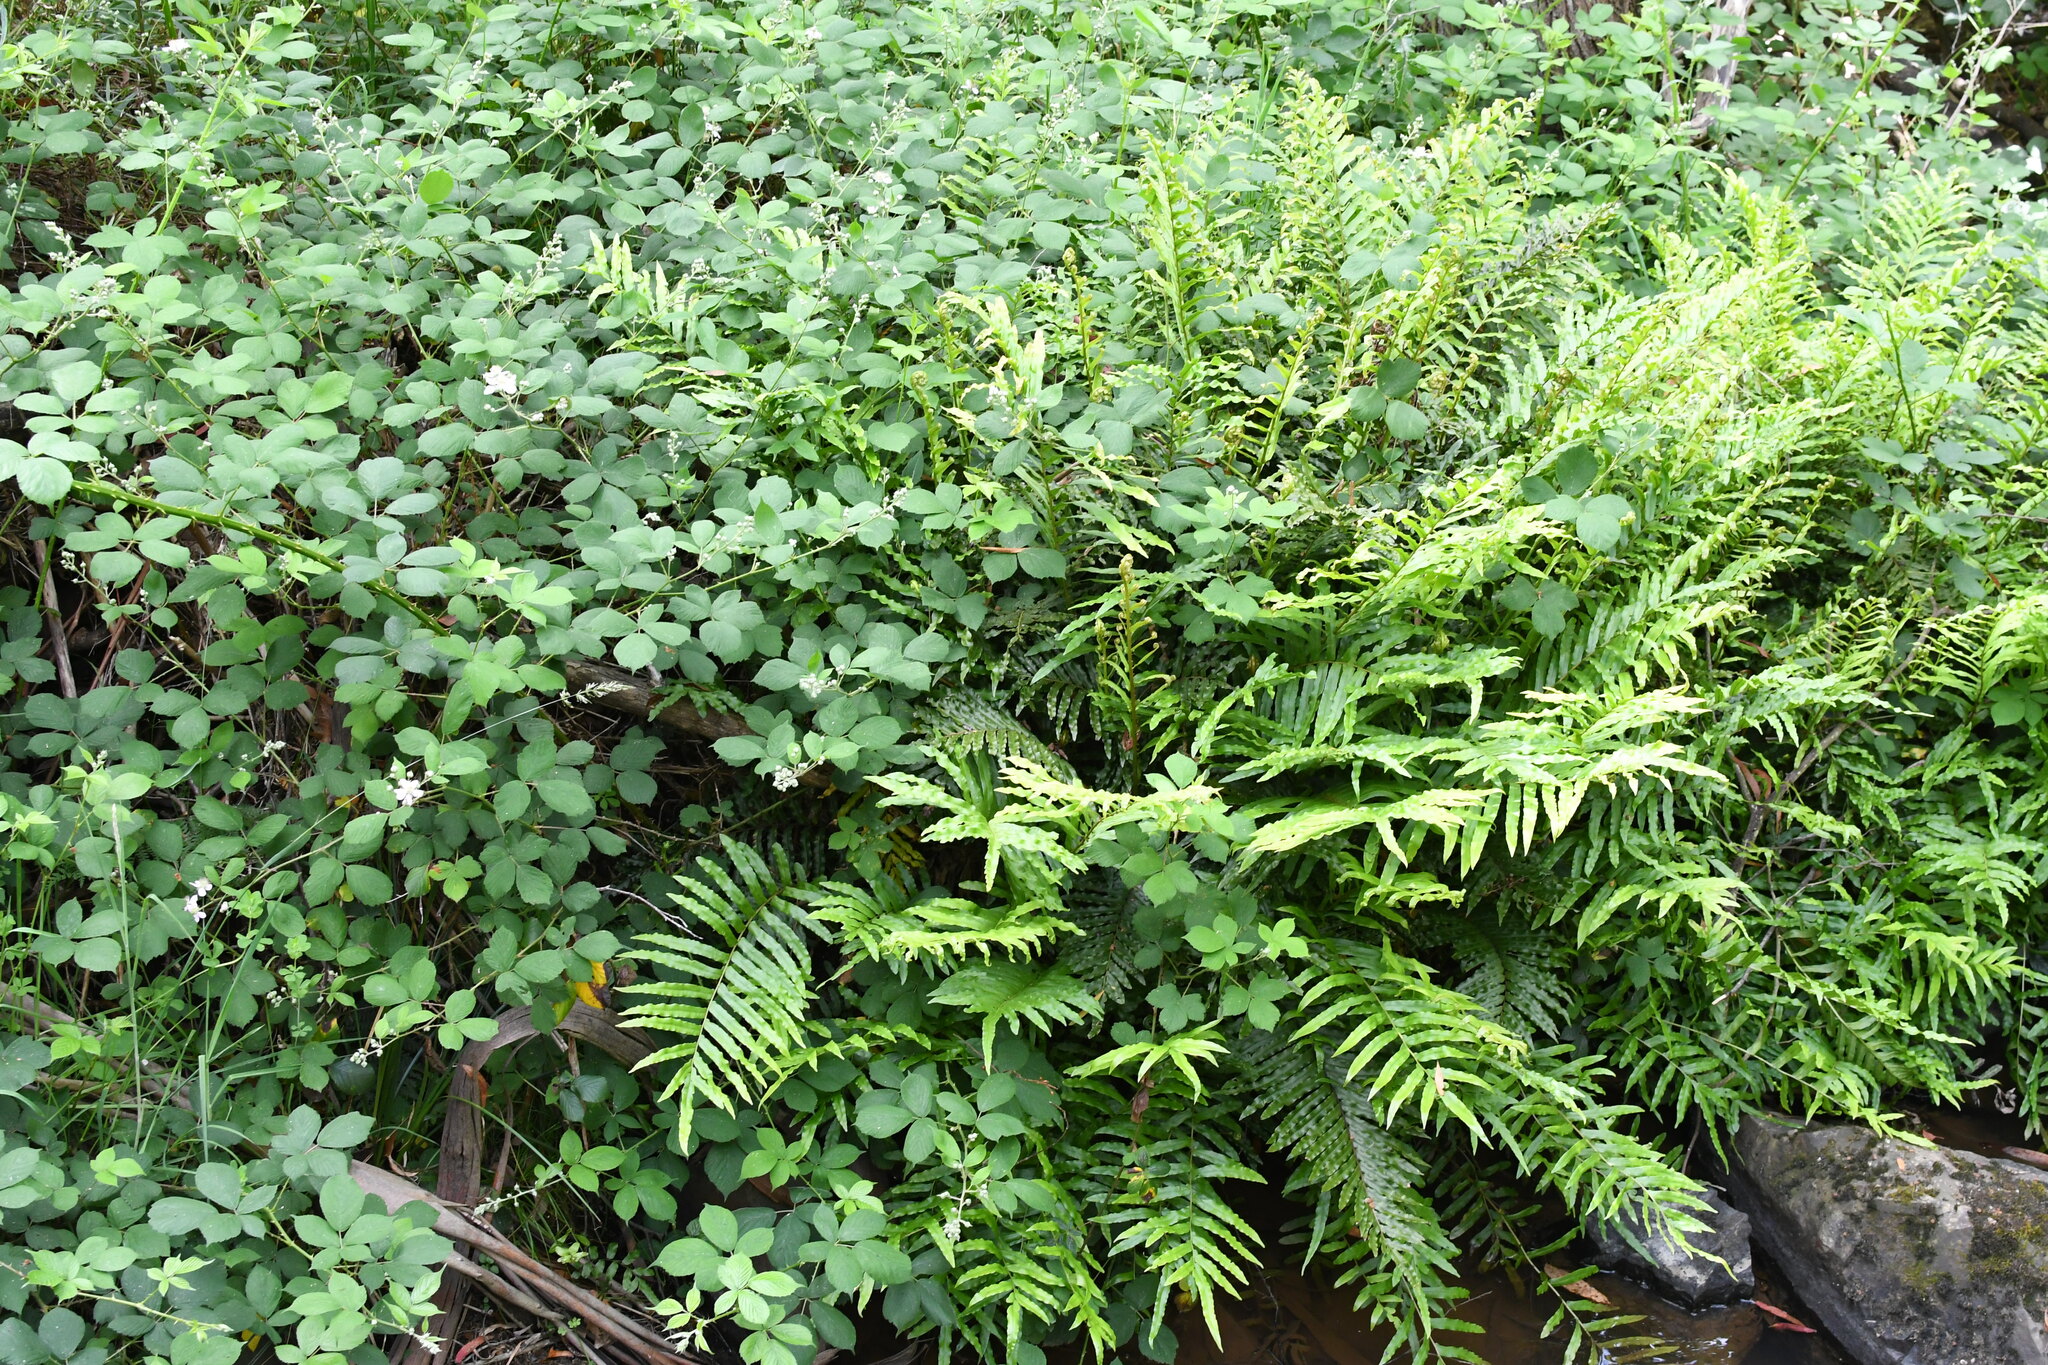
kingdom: Plantae
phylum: Tracheophyta
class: Polypodiopsida
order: Polypodiales
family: Blechnaceae
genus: Parablechnum
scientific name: Parablechnum minus
